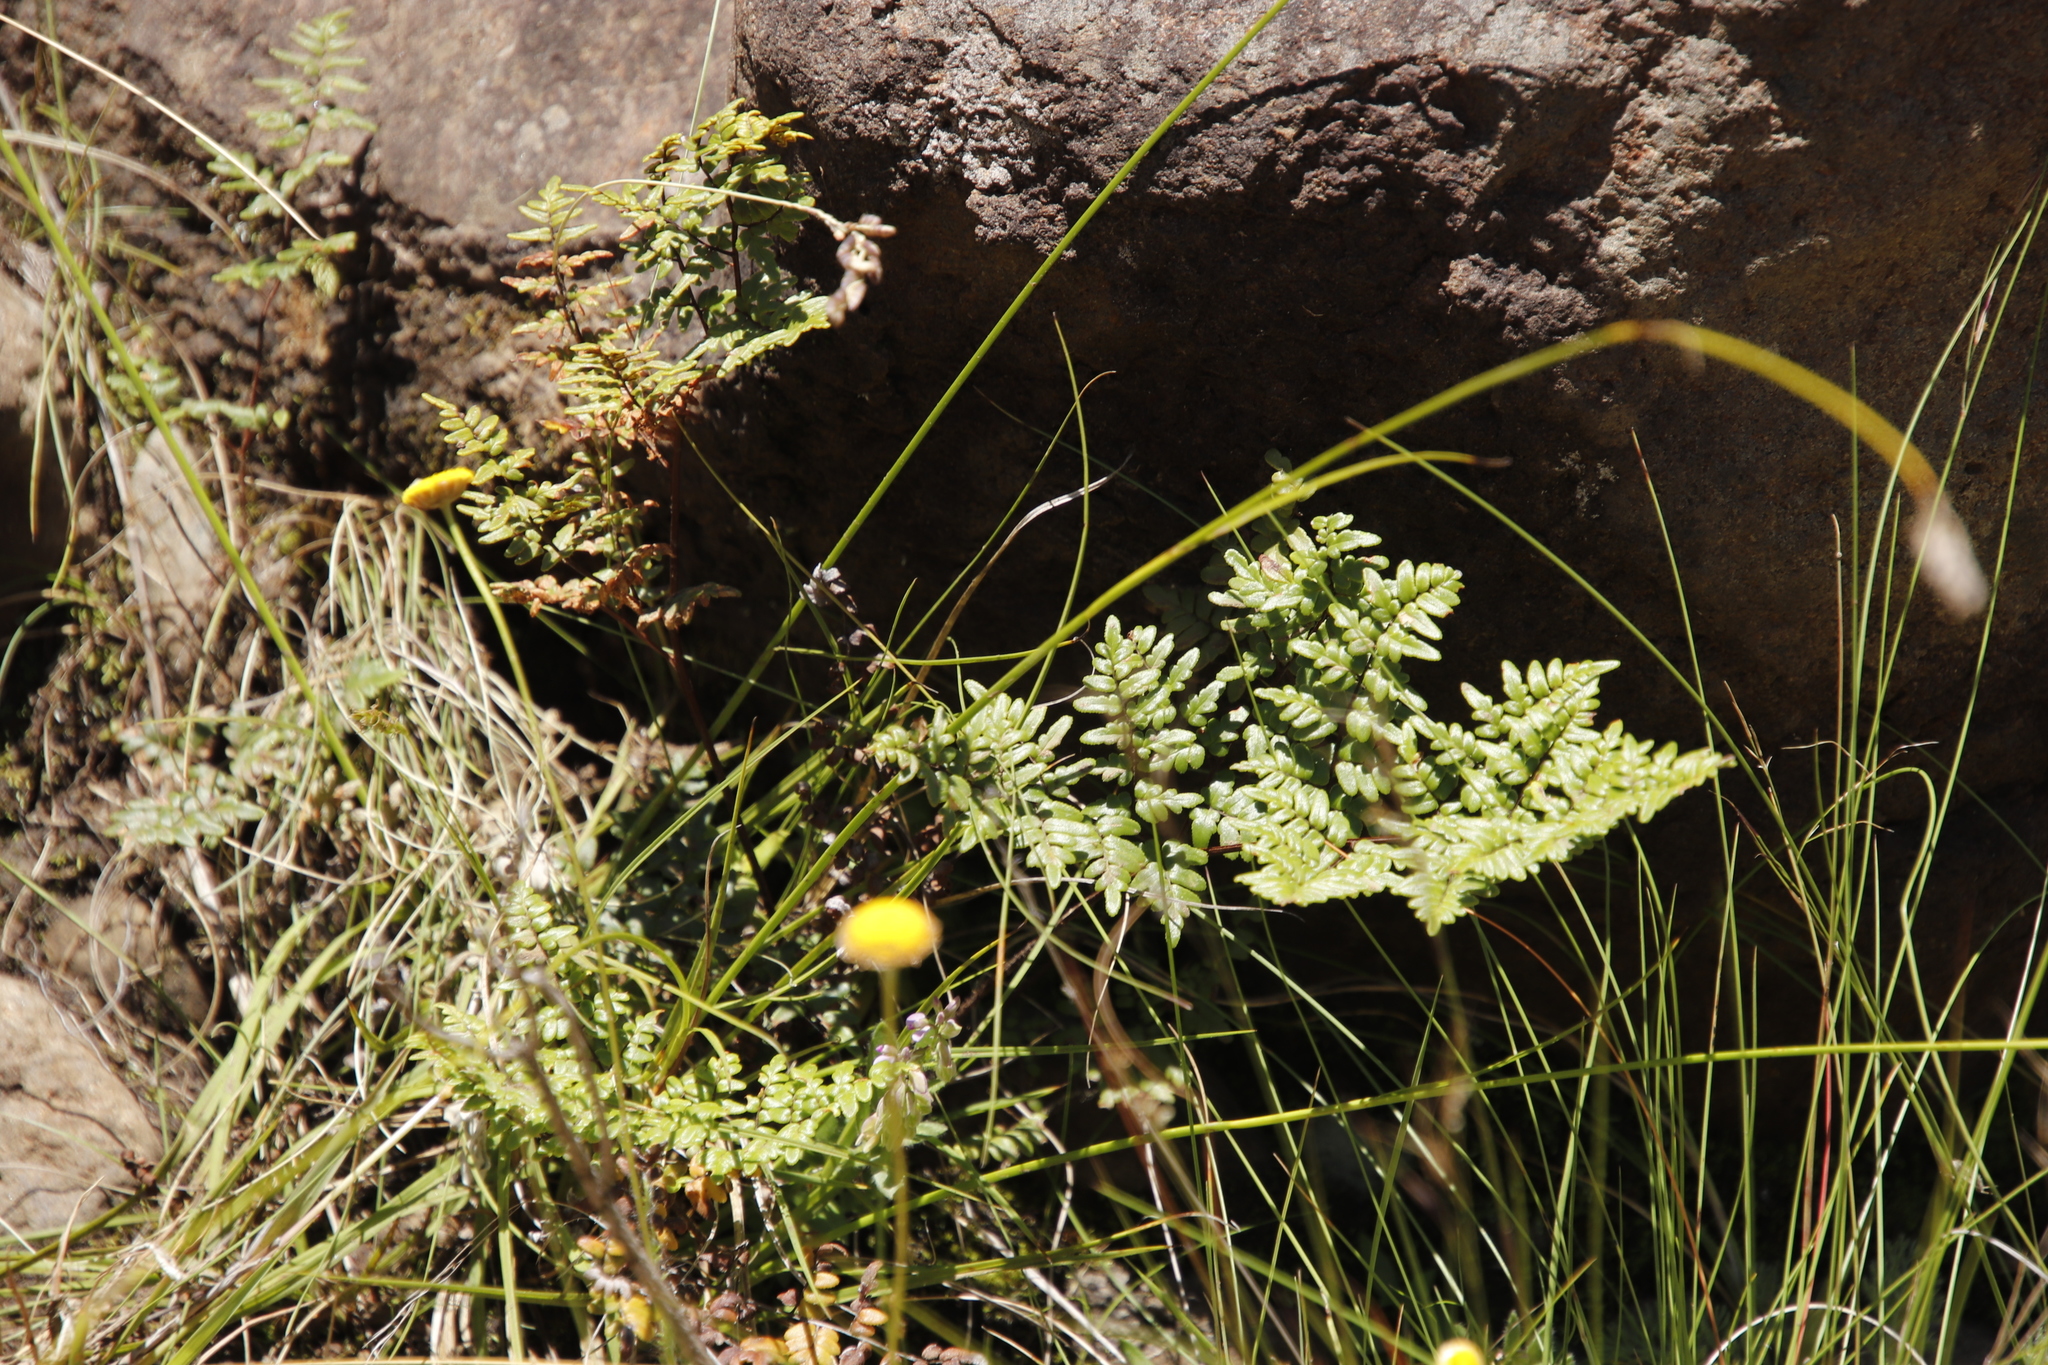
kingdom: Plantae
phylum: Tracheophyta
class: Polypodiopsida
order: Polypodiales
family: Pteridaceae
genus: Cheilanthes
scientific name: Cheilanthes quadripinnata
